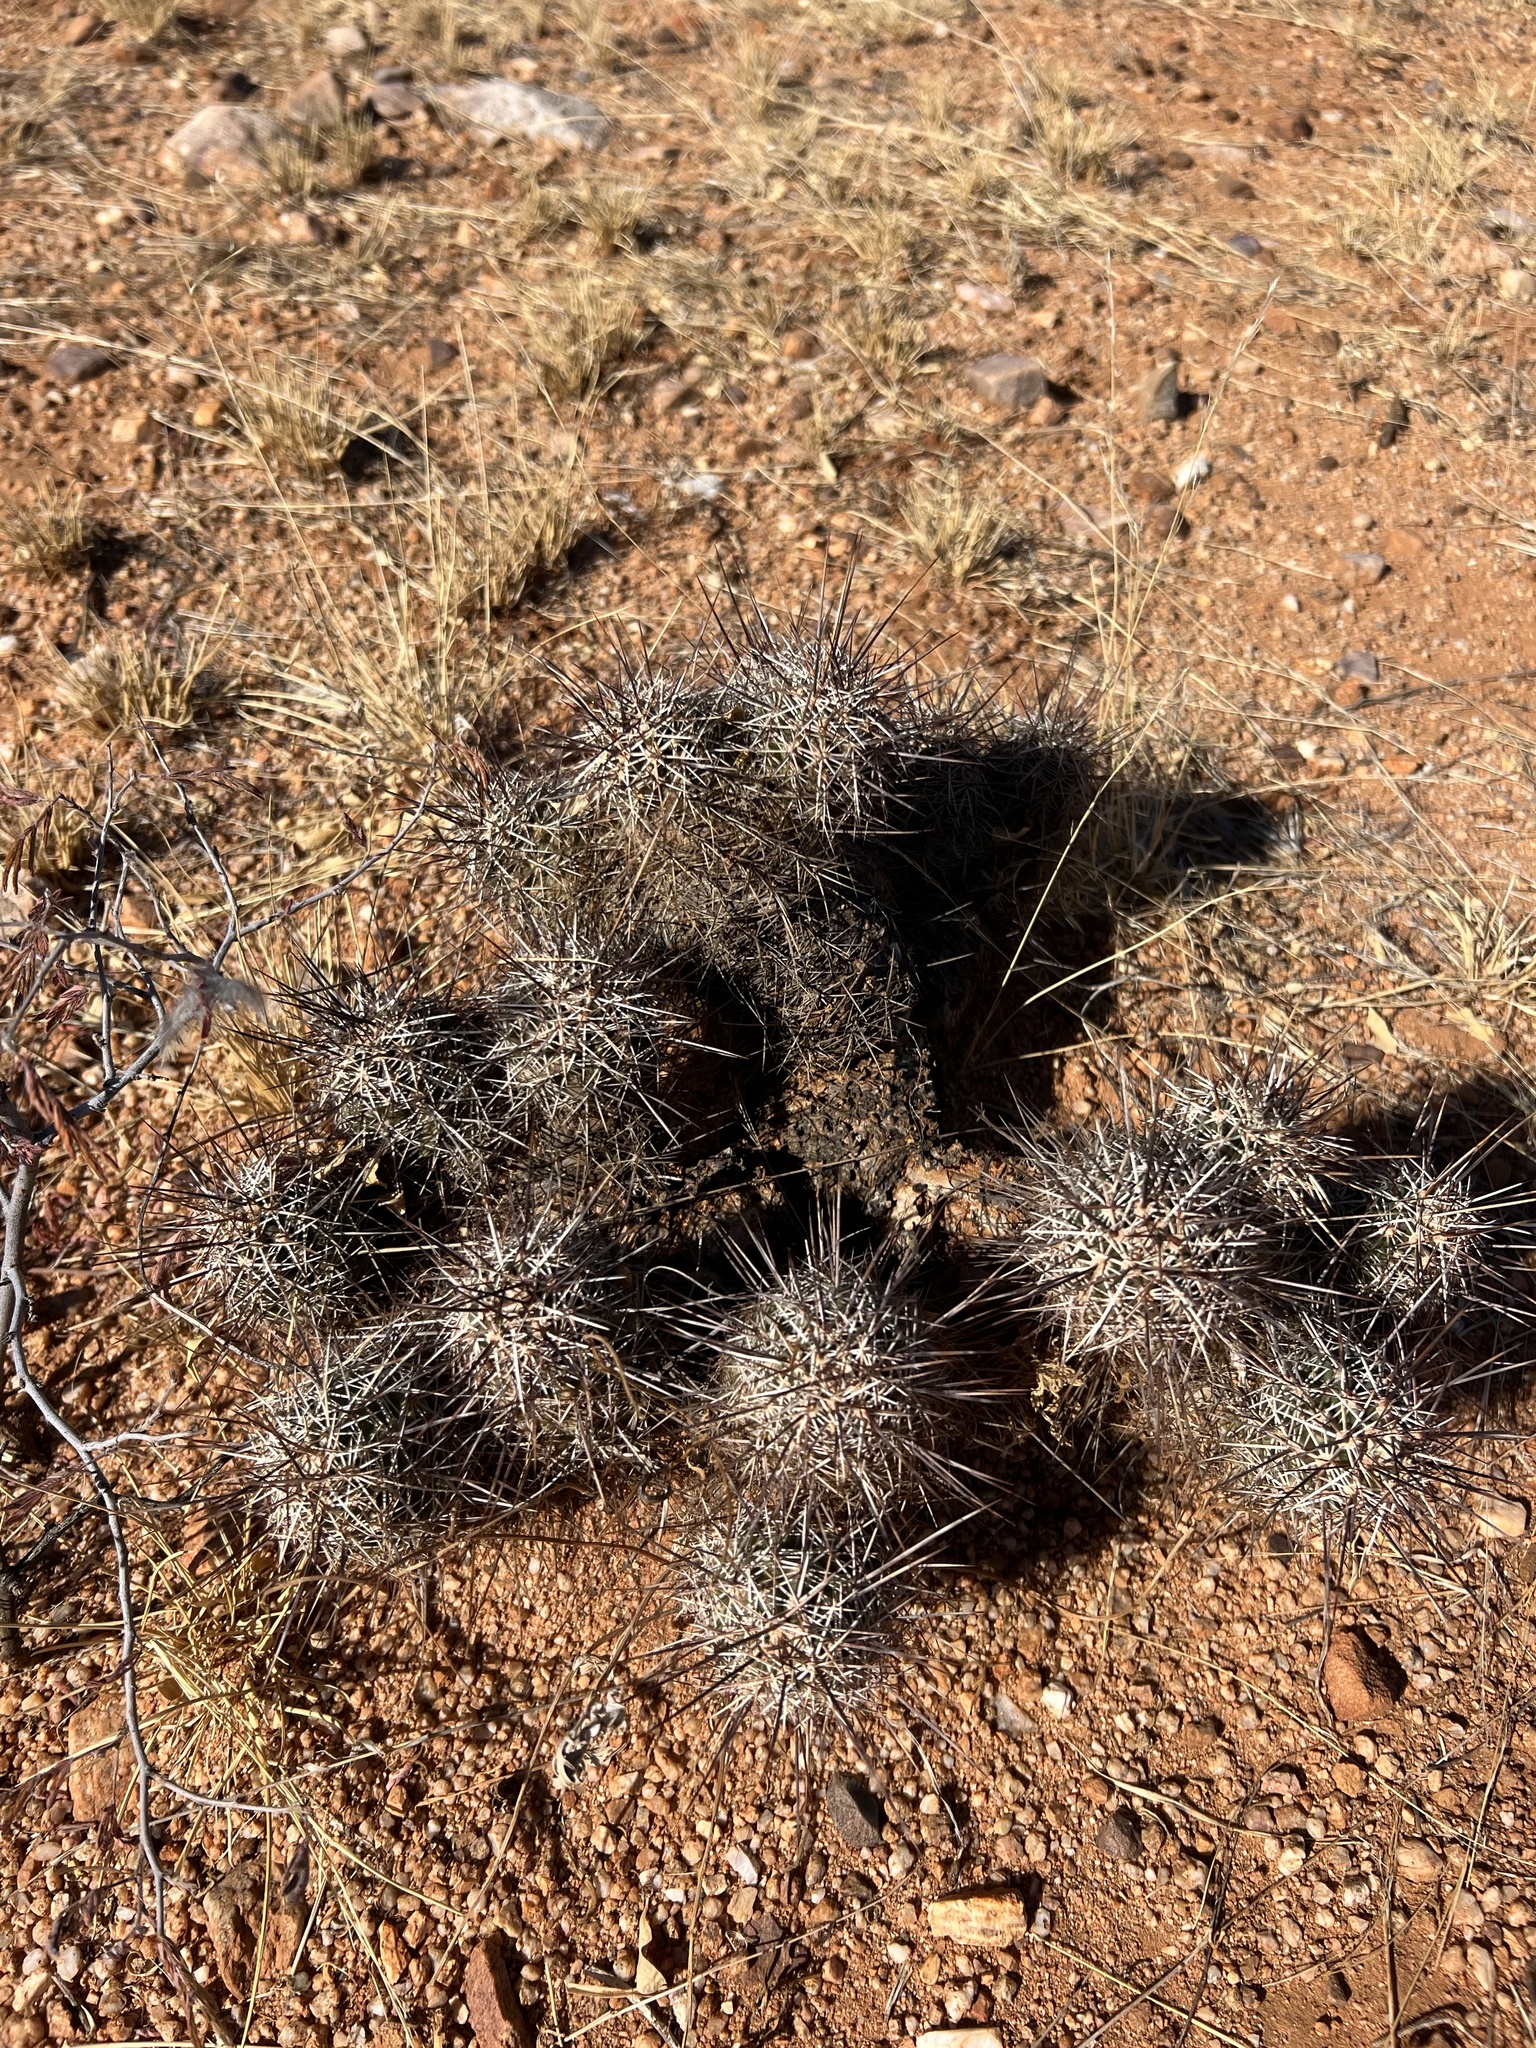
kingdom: Plantae
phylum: Tracheophyta
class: Magnoliopsida
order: Caryophyllales
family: Cactaceae
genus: Echinocereus
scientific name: Echinocereus fasciculatus
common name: Bundle hedgehog
